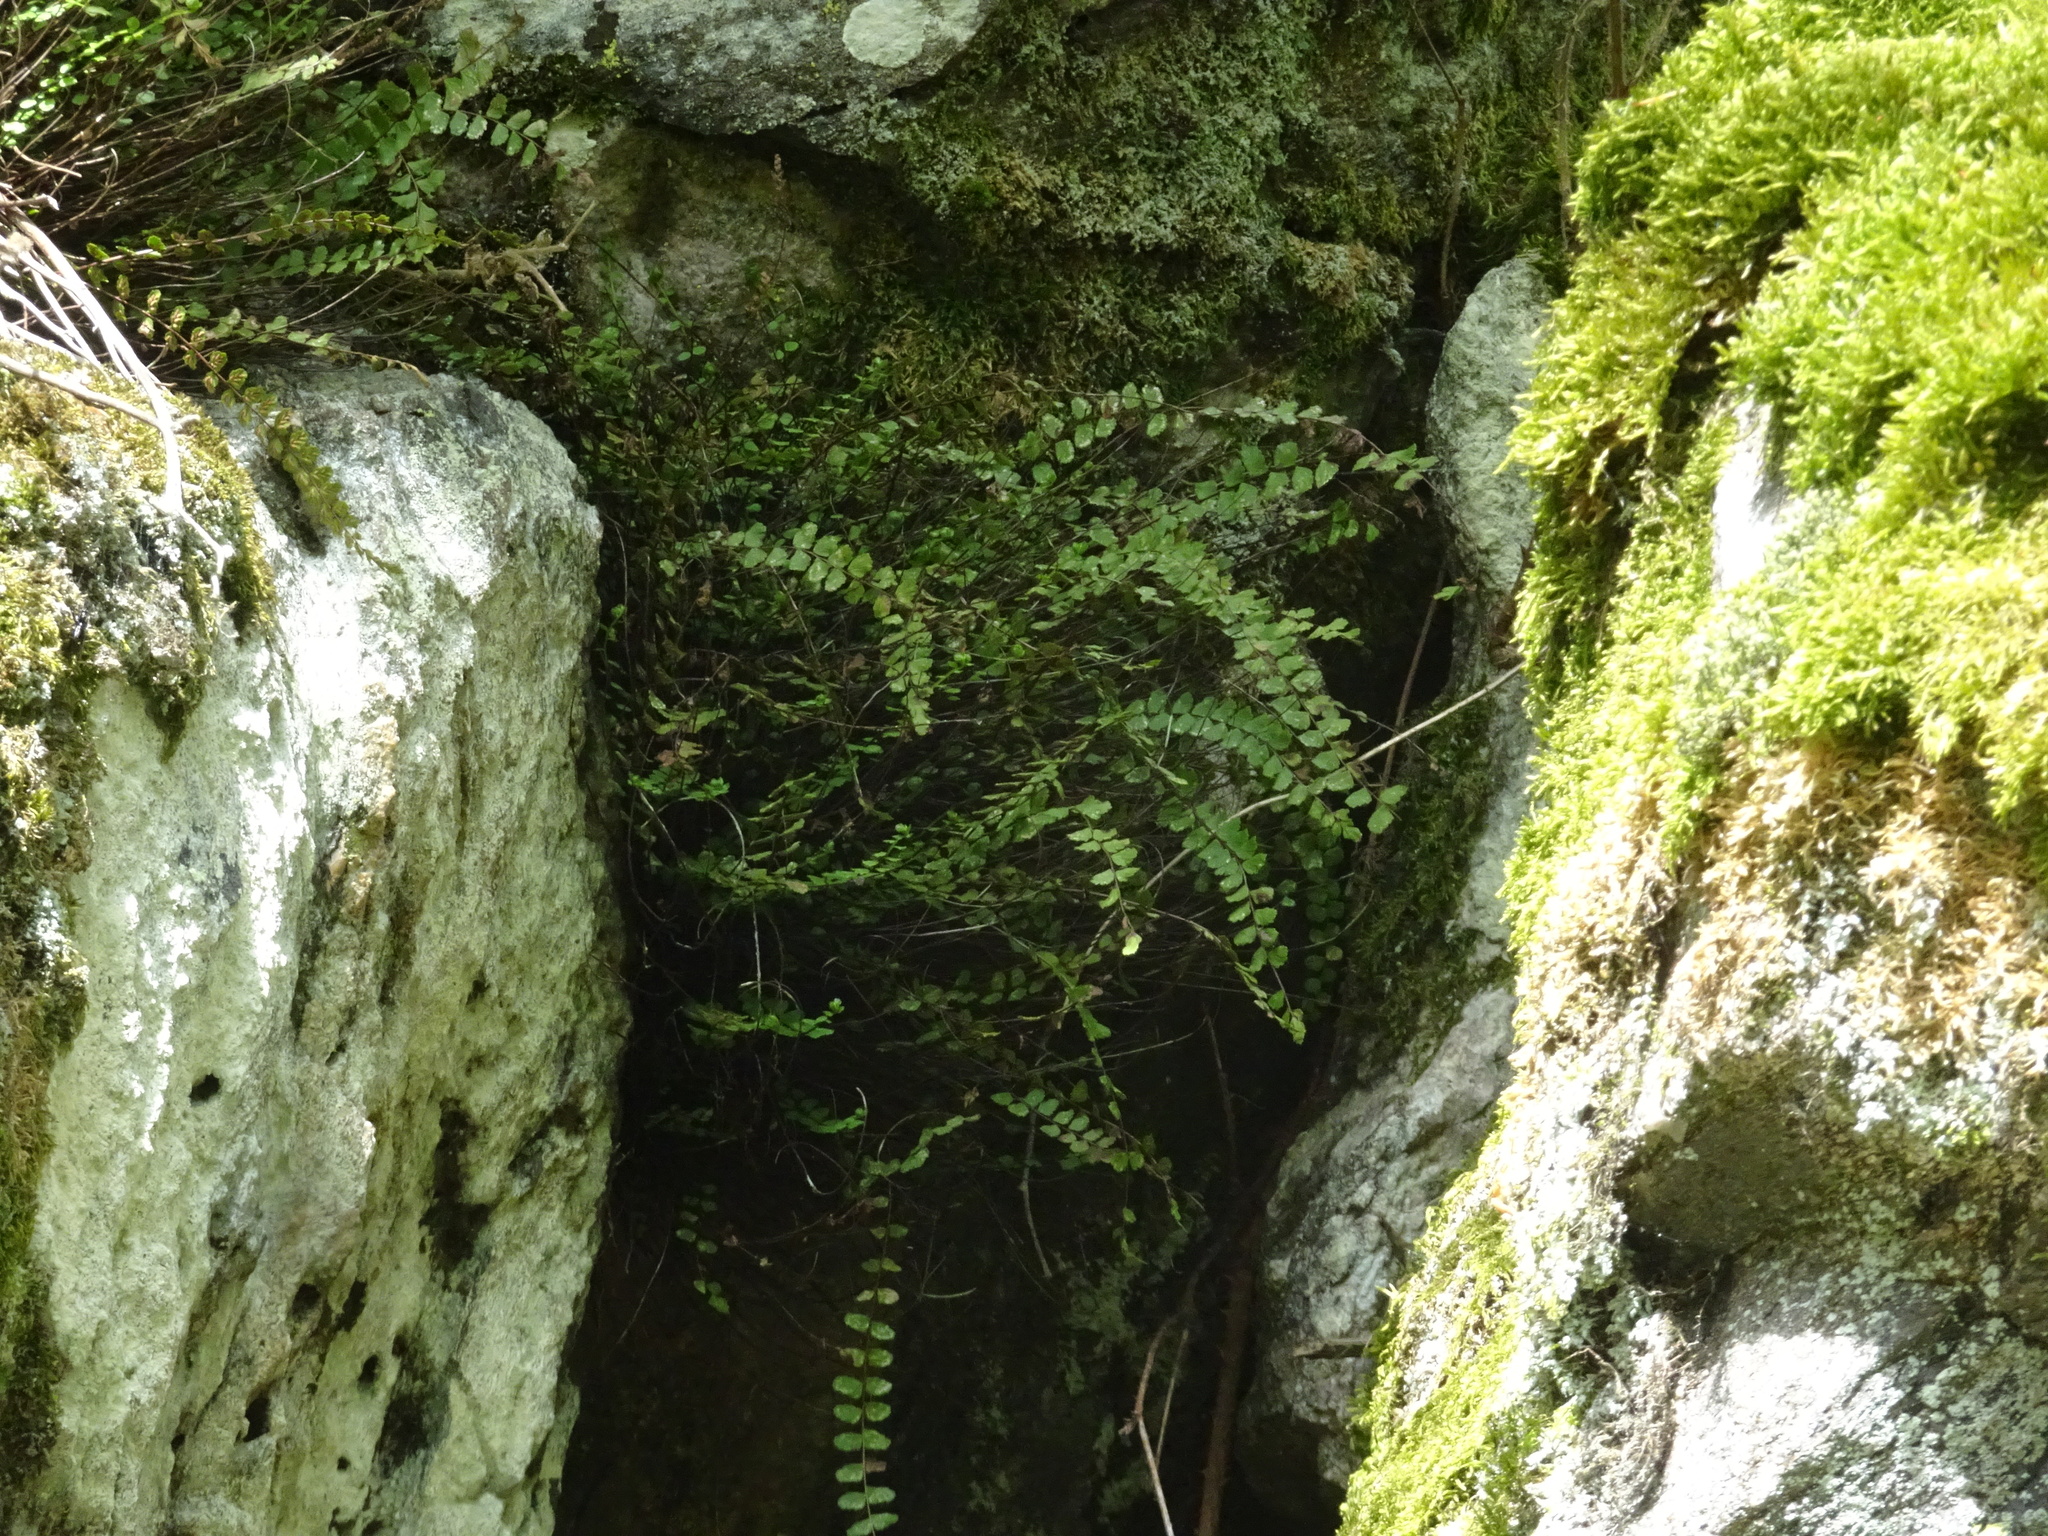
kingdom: Plantae
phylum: Tracheophyta
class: Polypodiopsida
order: Polypodiales
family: Aspleniaceae
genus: Asplenium
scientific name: Asplenium trichomanes
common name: Maidenhair spleenwort
